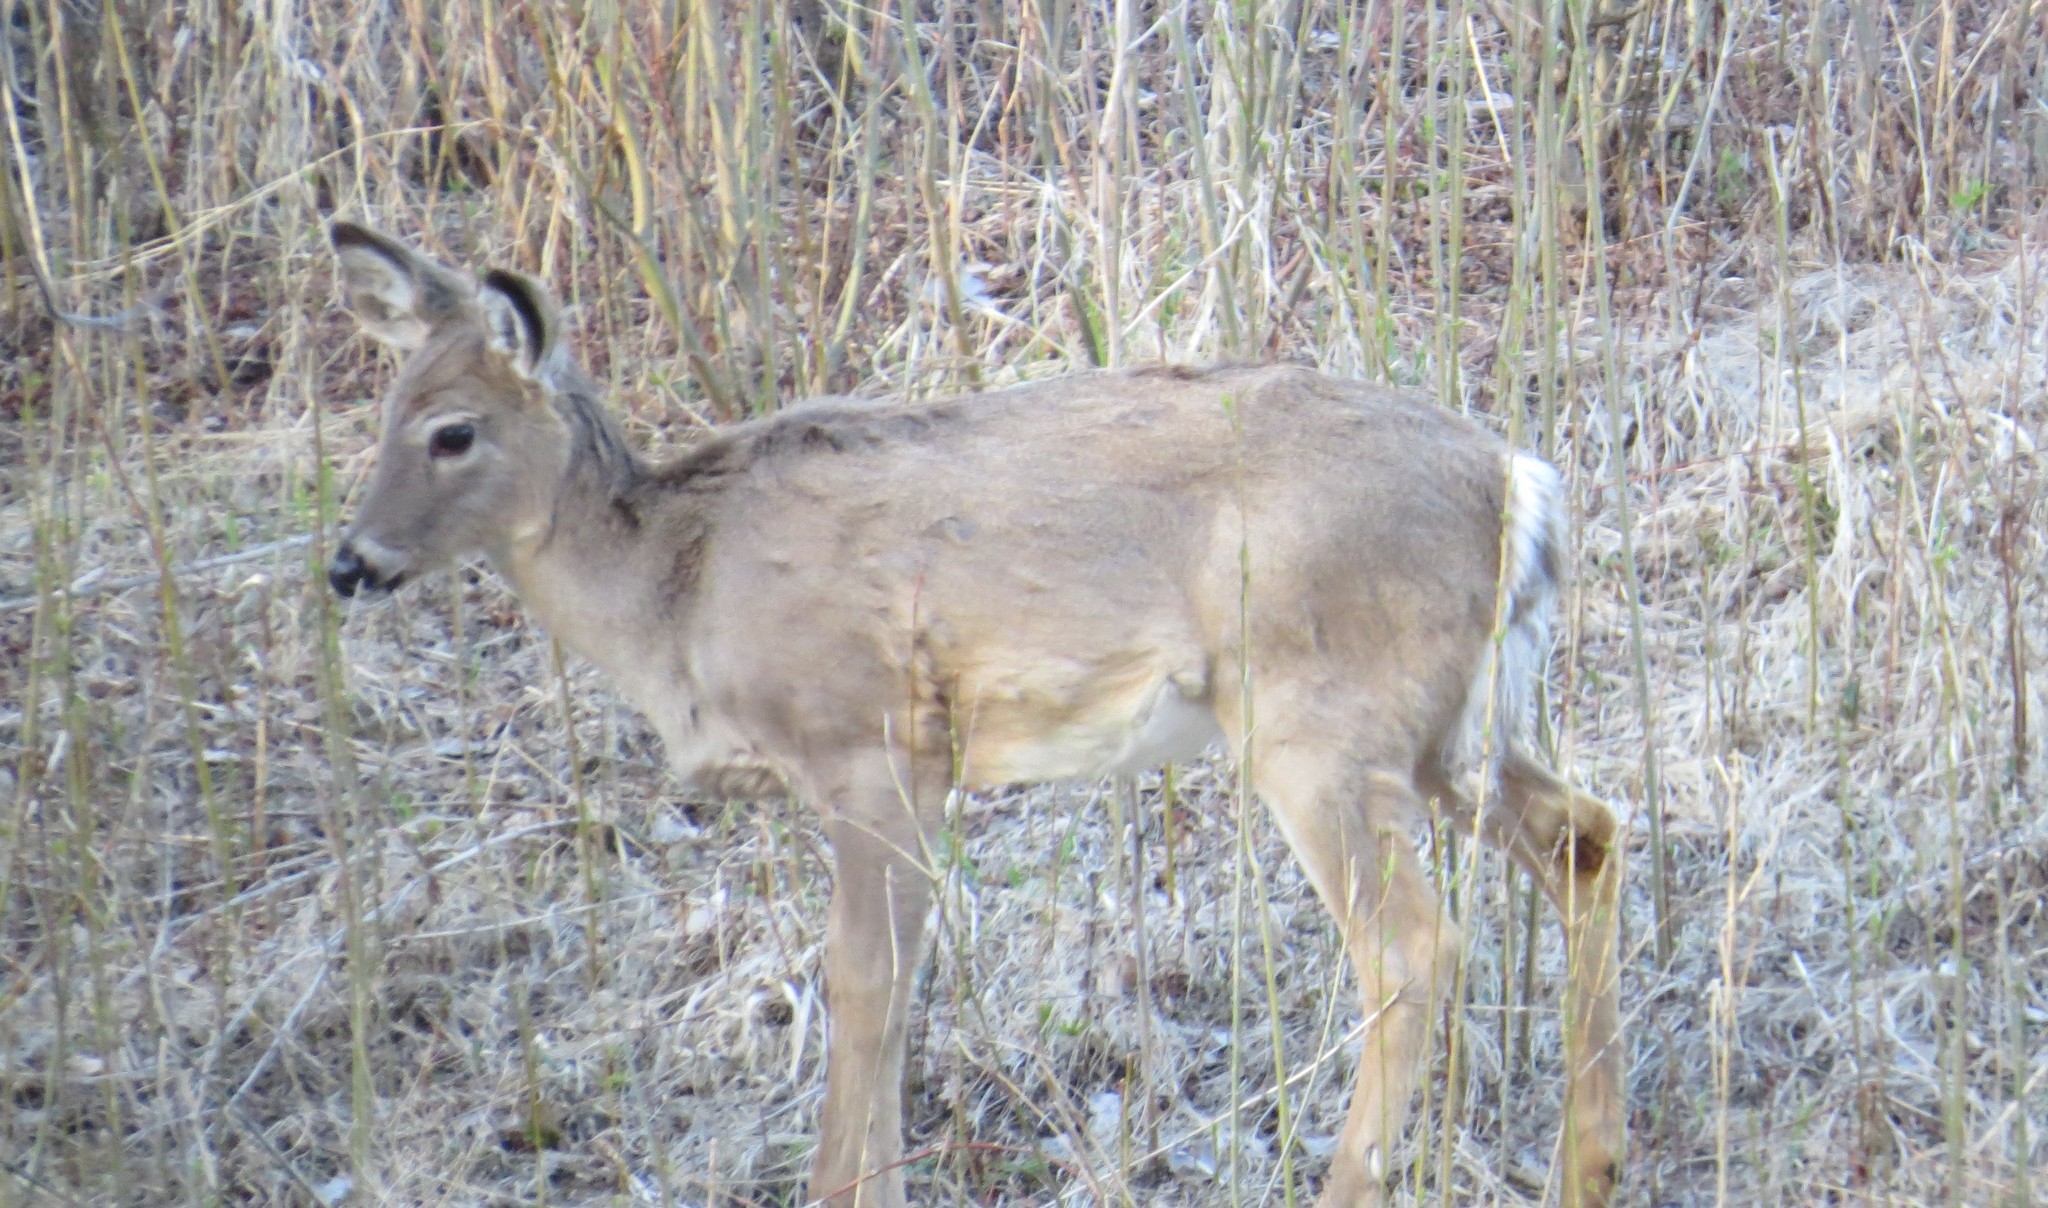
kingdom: Animalia
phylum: Chordata
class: Mammalia
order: Artiodactyla
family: Cervidae
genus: Odocoileus
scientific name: Odocoileus virginianus
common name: White-tailed deer
